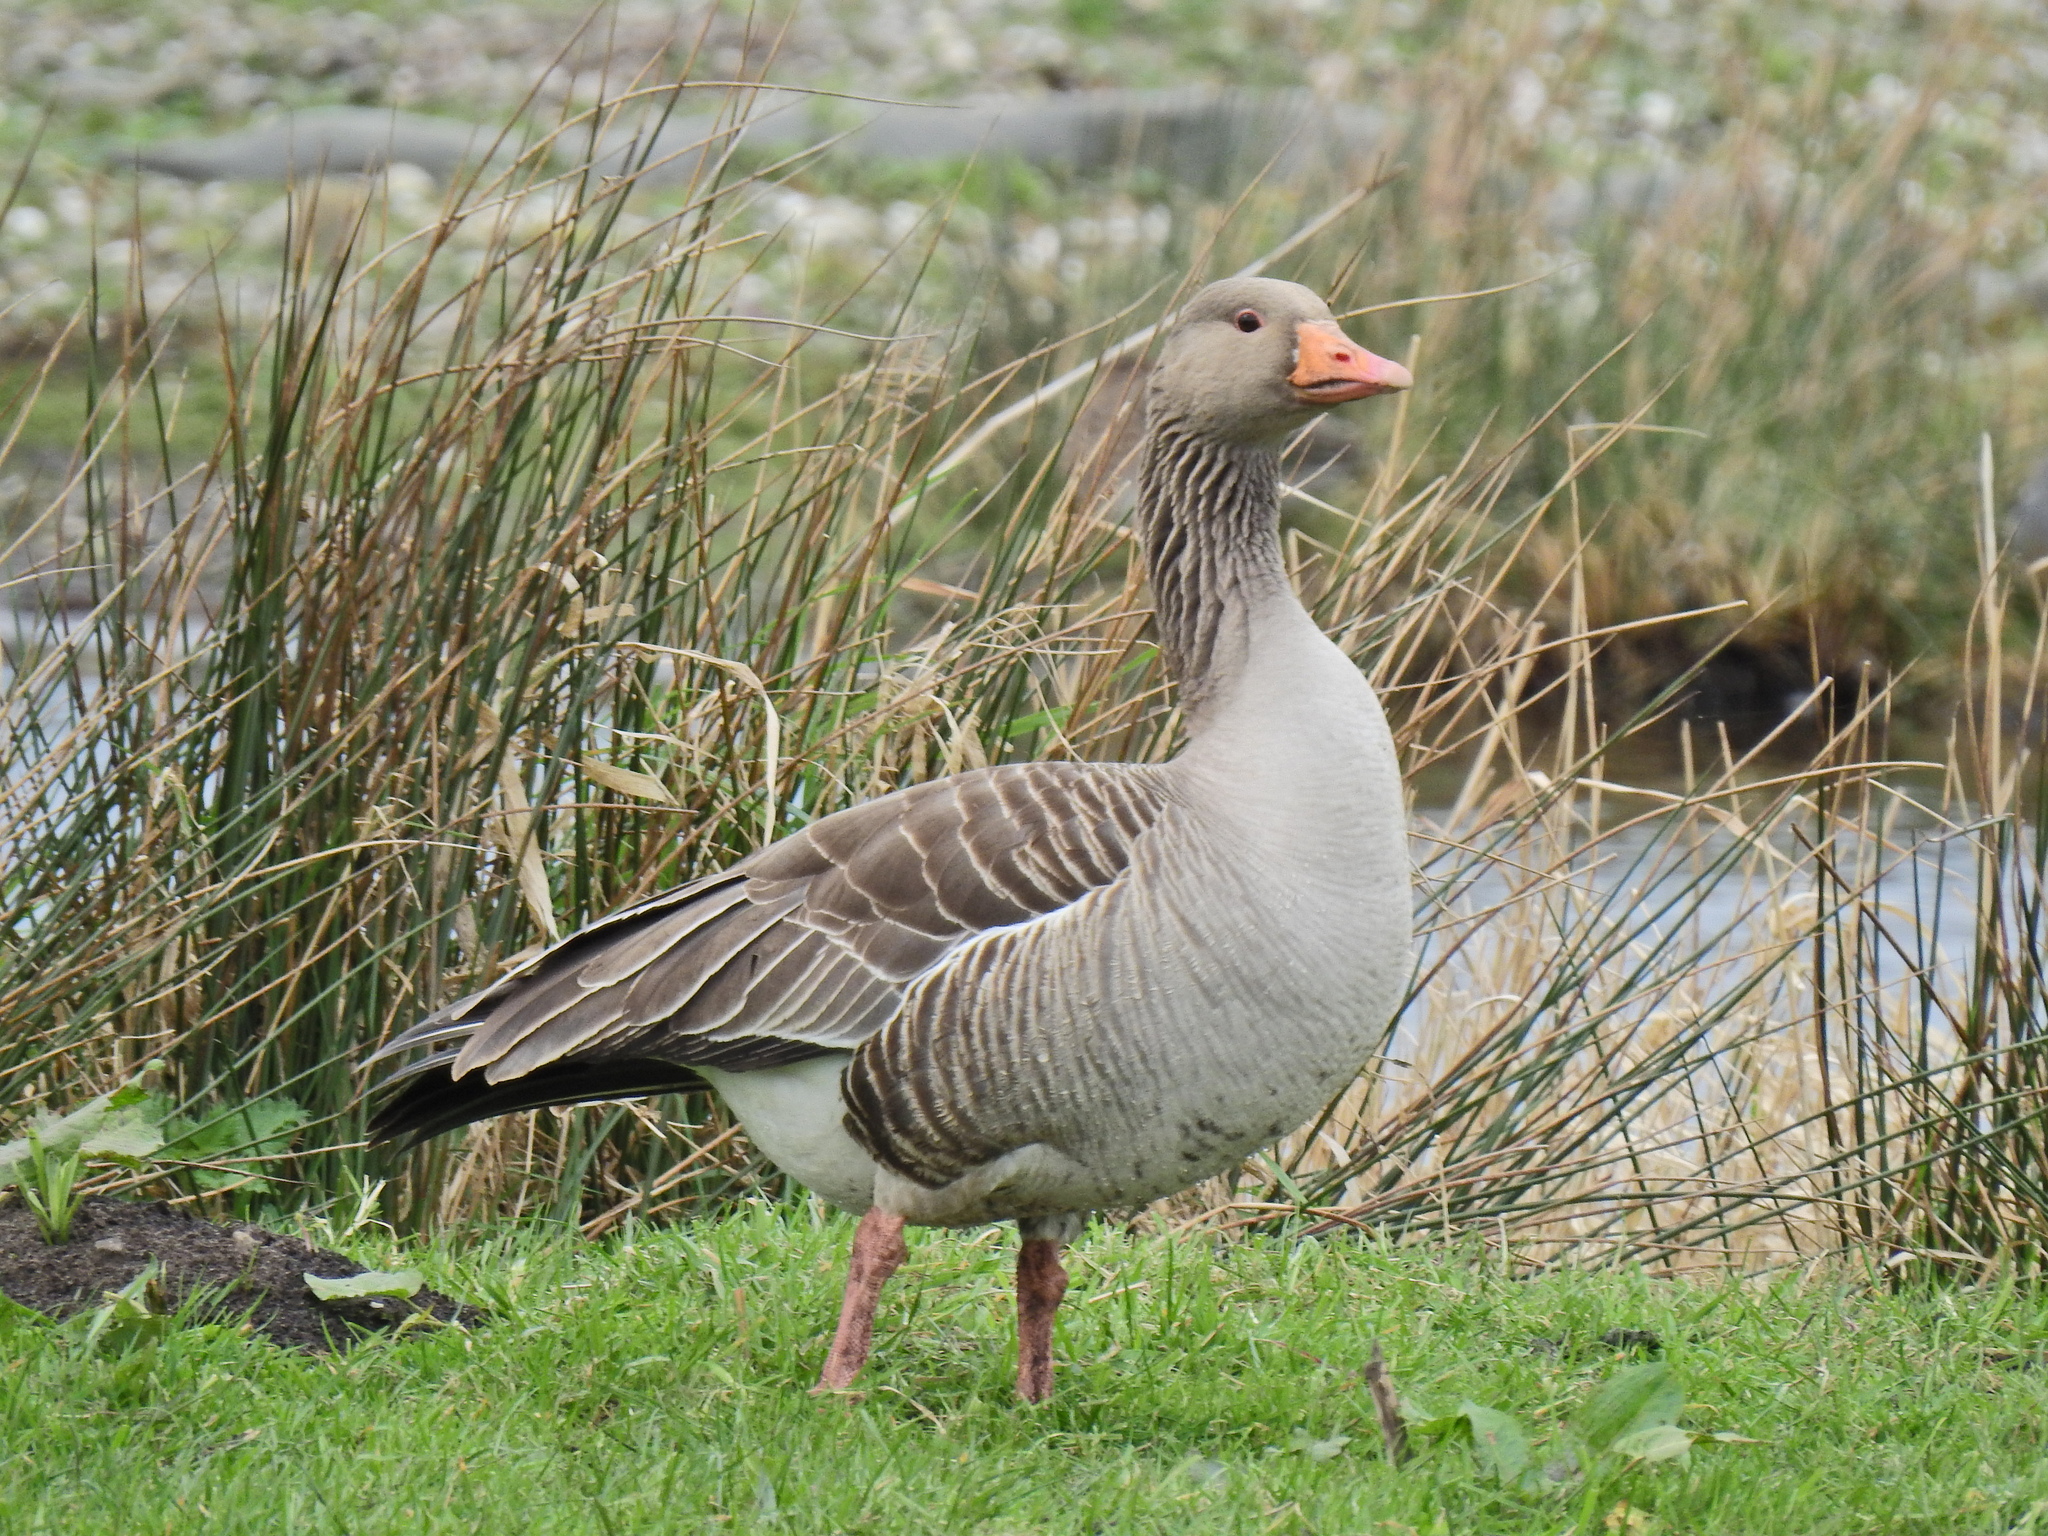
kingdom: Animalia
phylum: Chordata
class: Aves
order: Anseriformes
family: Anatidae
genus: Anser
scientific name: Anser anser
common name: Greylag goose
